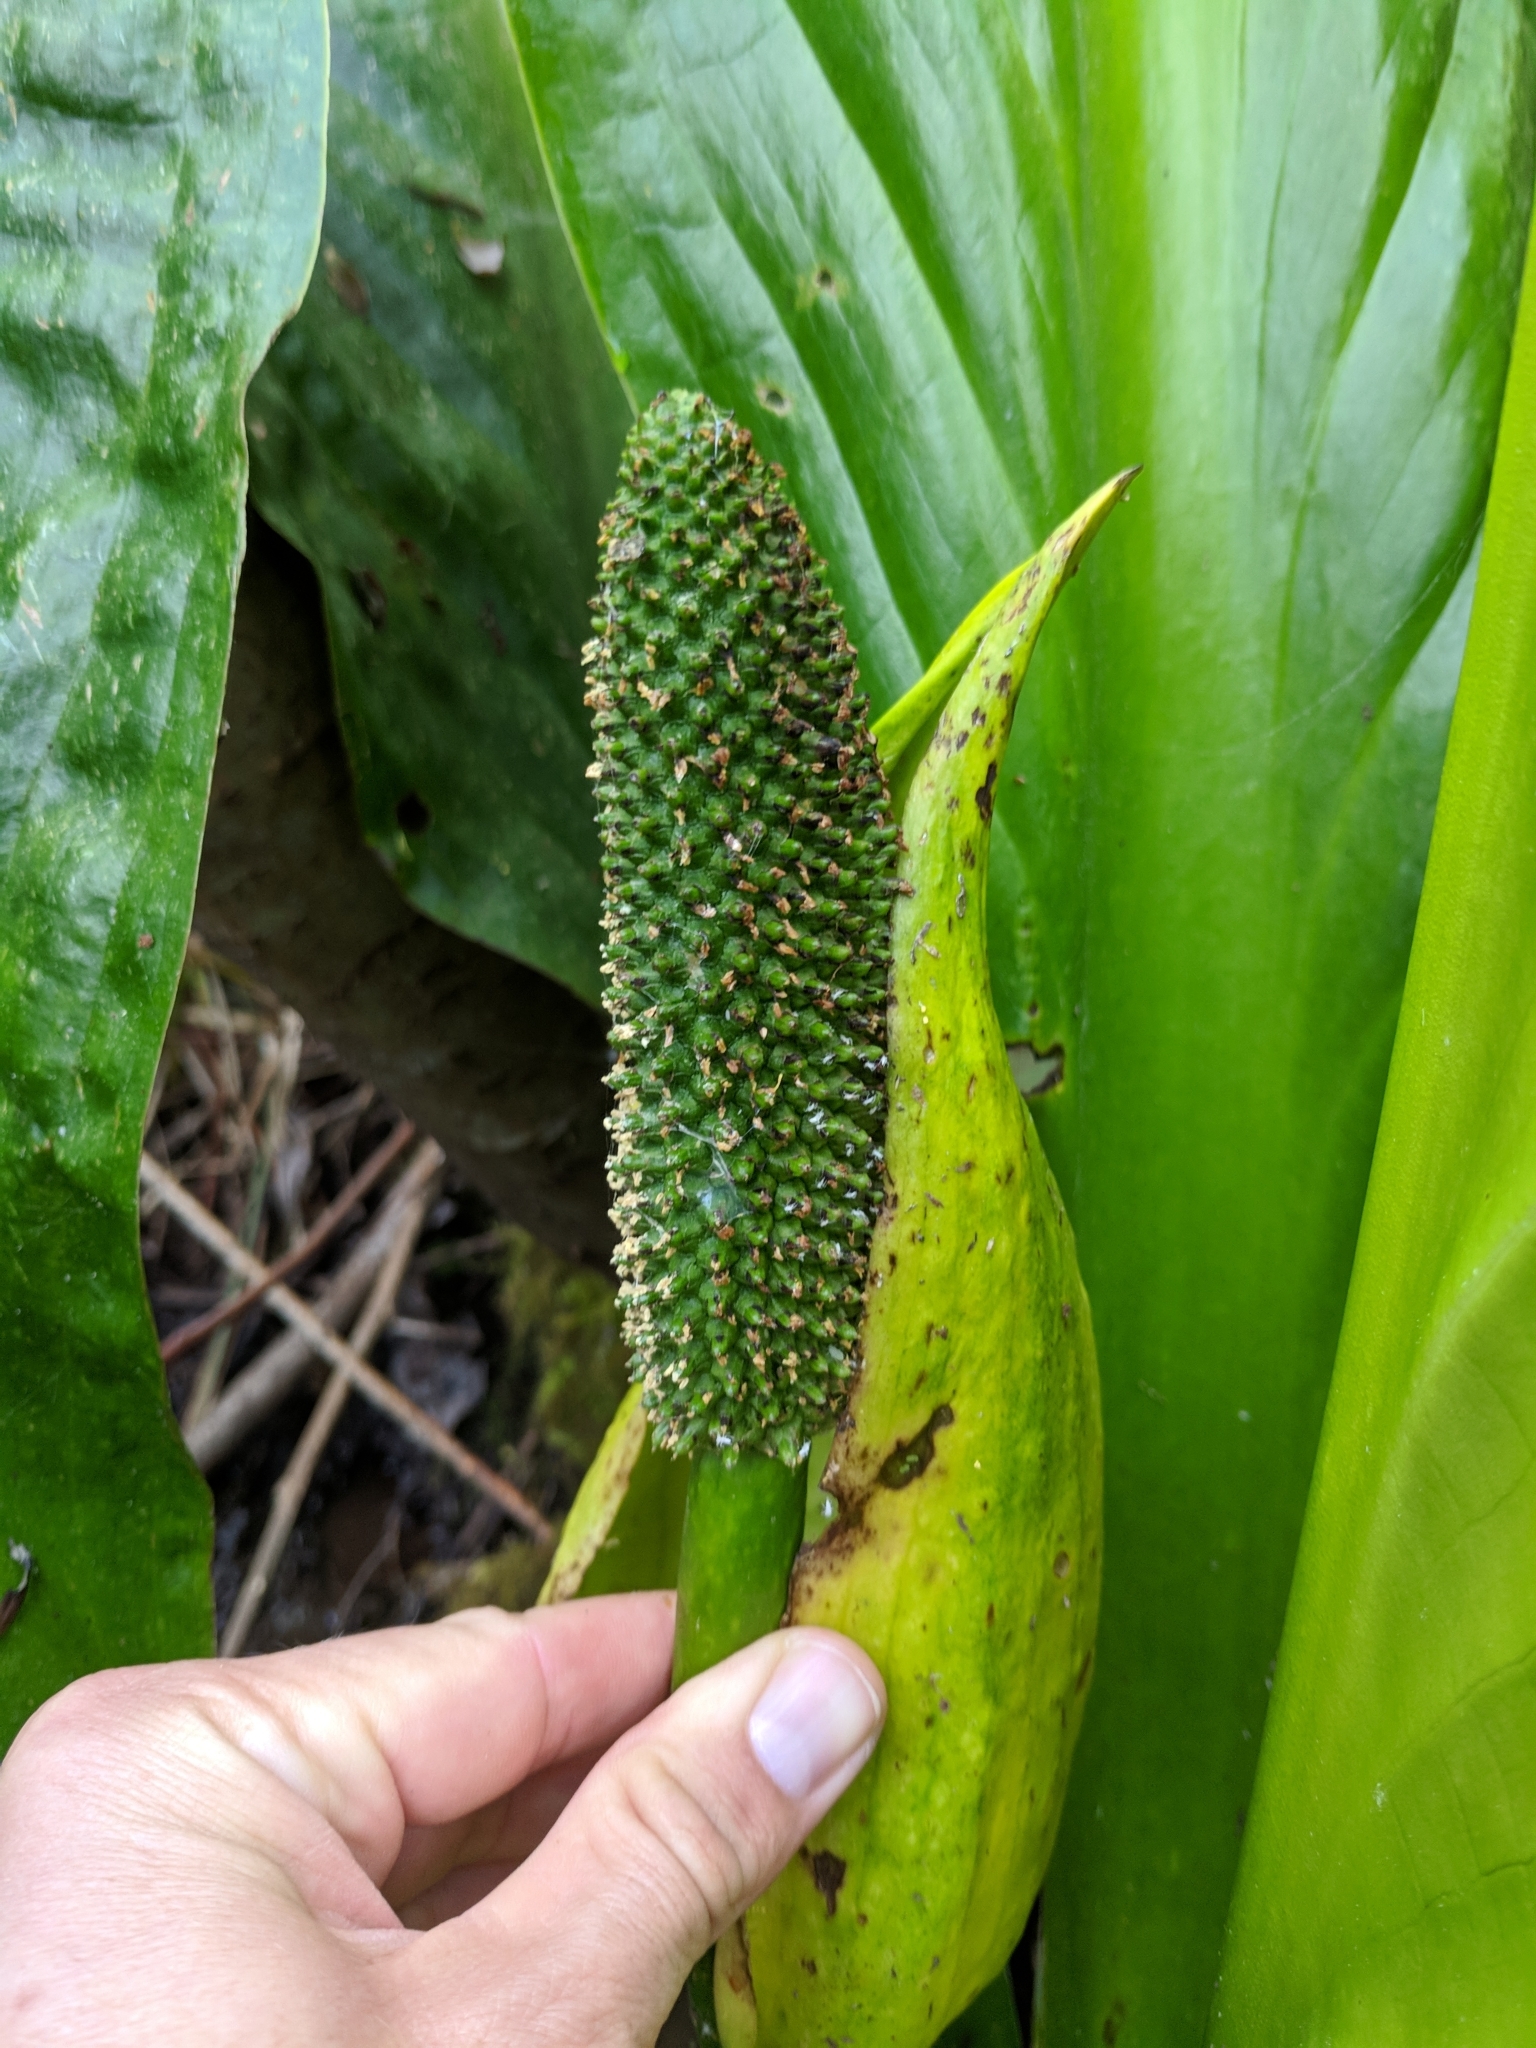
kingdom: Plantae
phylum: Tracheophyta
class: Liliopsida
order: Alismatales
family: Araceae
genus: Lysichiton
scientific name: Lysichiton americanus
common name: American skunk cabbage
